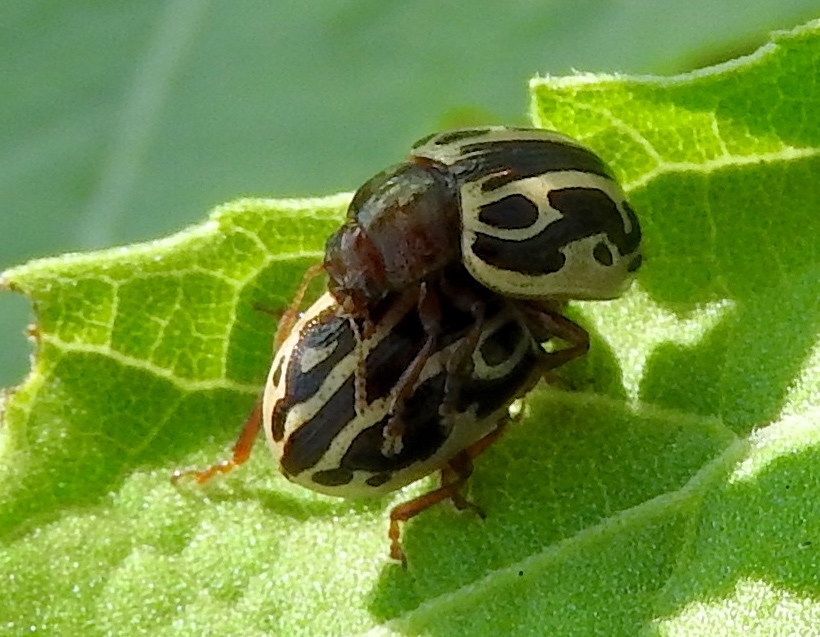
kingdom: Animalia
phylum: Arthropoda
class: Insecta
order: Coleoptera
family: Chrysomelidae
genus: Calligrapha
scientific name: Calligrapha
